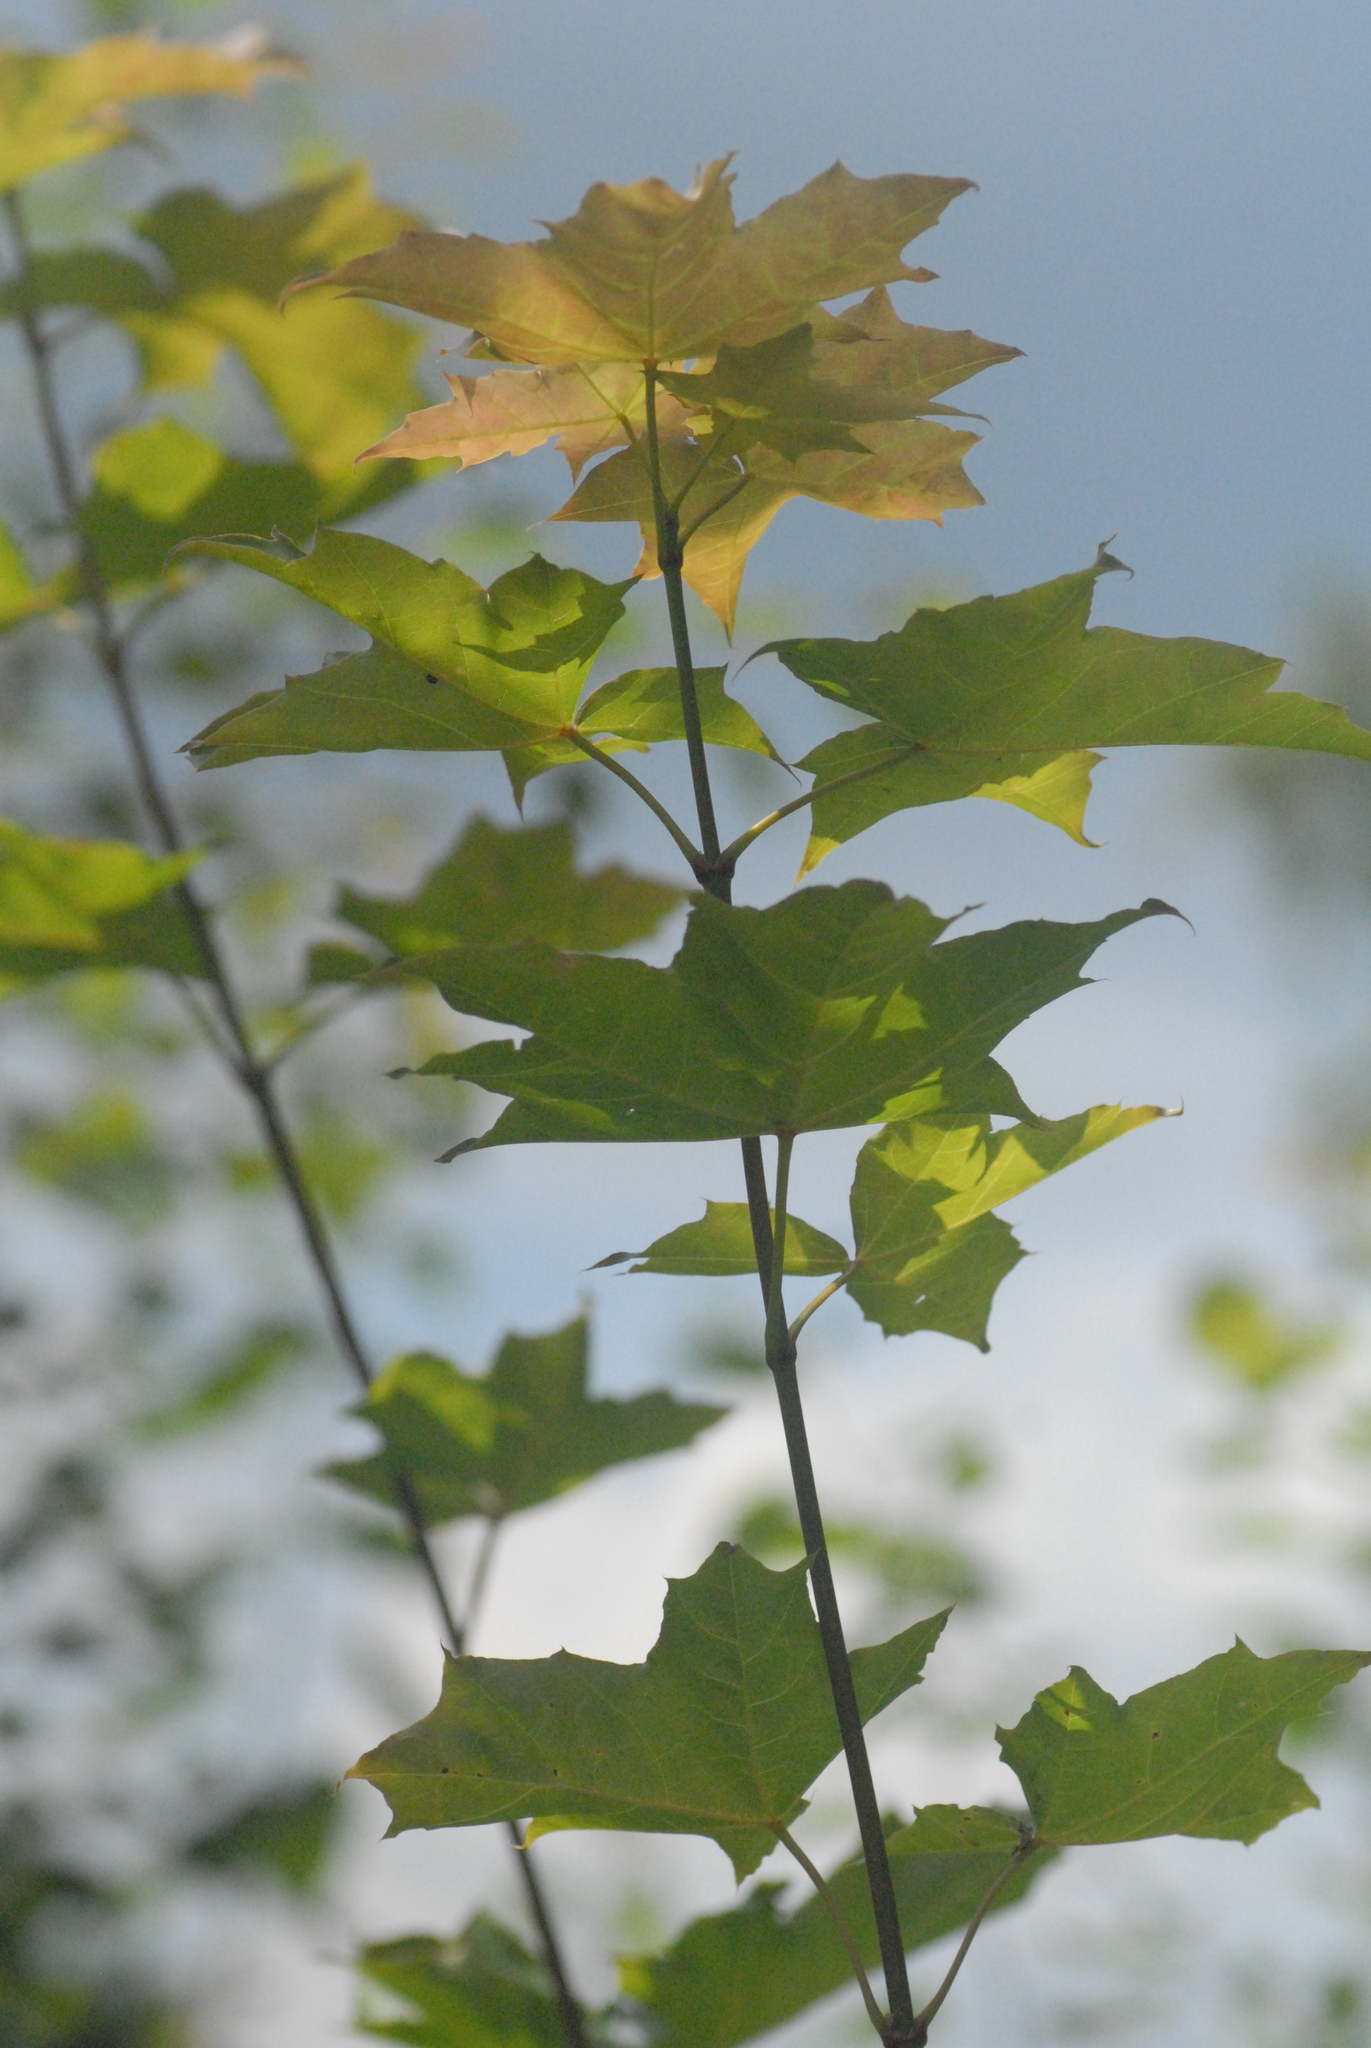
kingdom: Plantae
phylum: Tracheophyta
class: Magnoliopsida
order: Sapindales
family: Sapindaceae
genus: Acer
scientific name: Acer platanoides
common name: Norway maple
